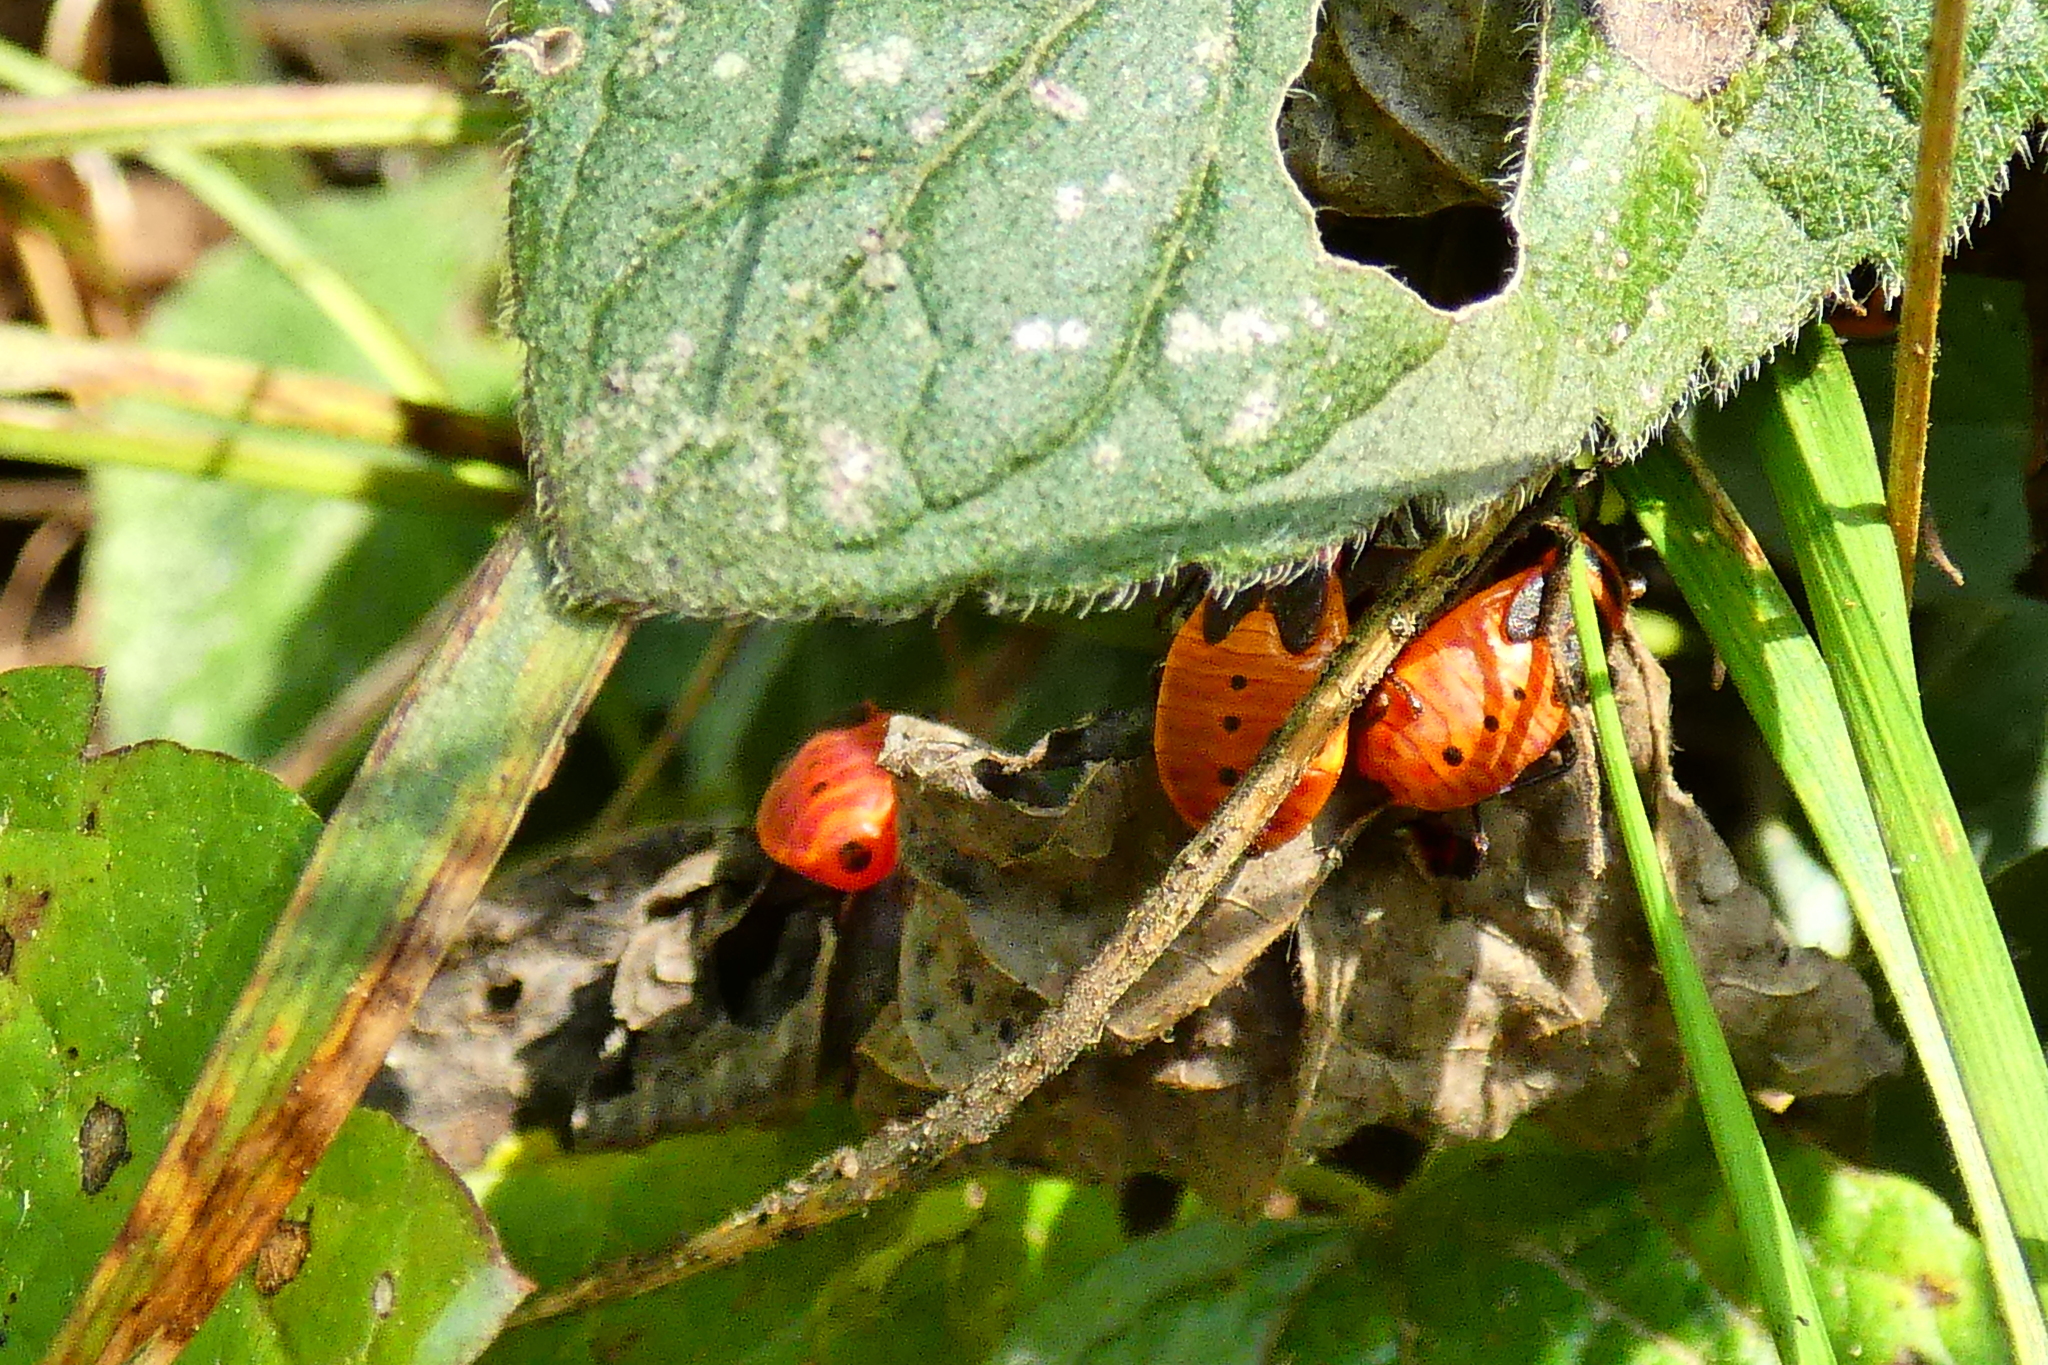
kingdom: Animalia
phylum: Arthropoda
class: Insecta
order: Hemiptera
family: Pyrrhocoridae
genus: Pyrrhocoris
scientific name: Pyrrhocoris apterus
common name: Firebug
